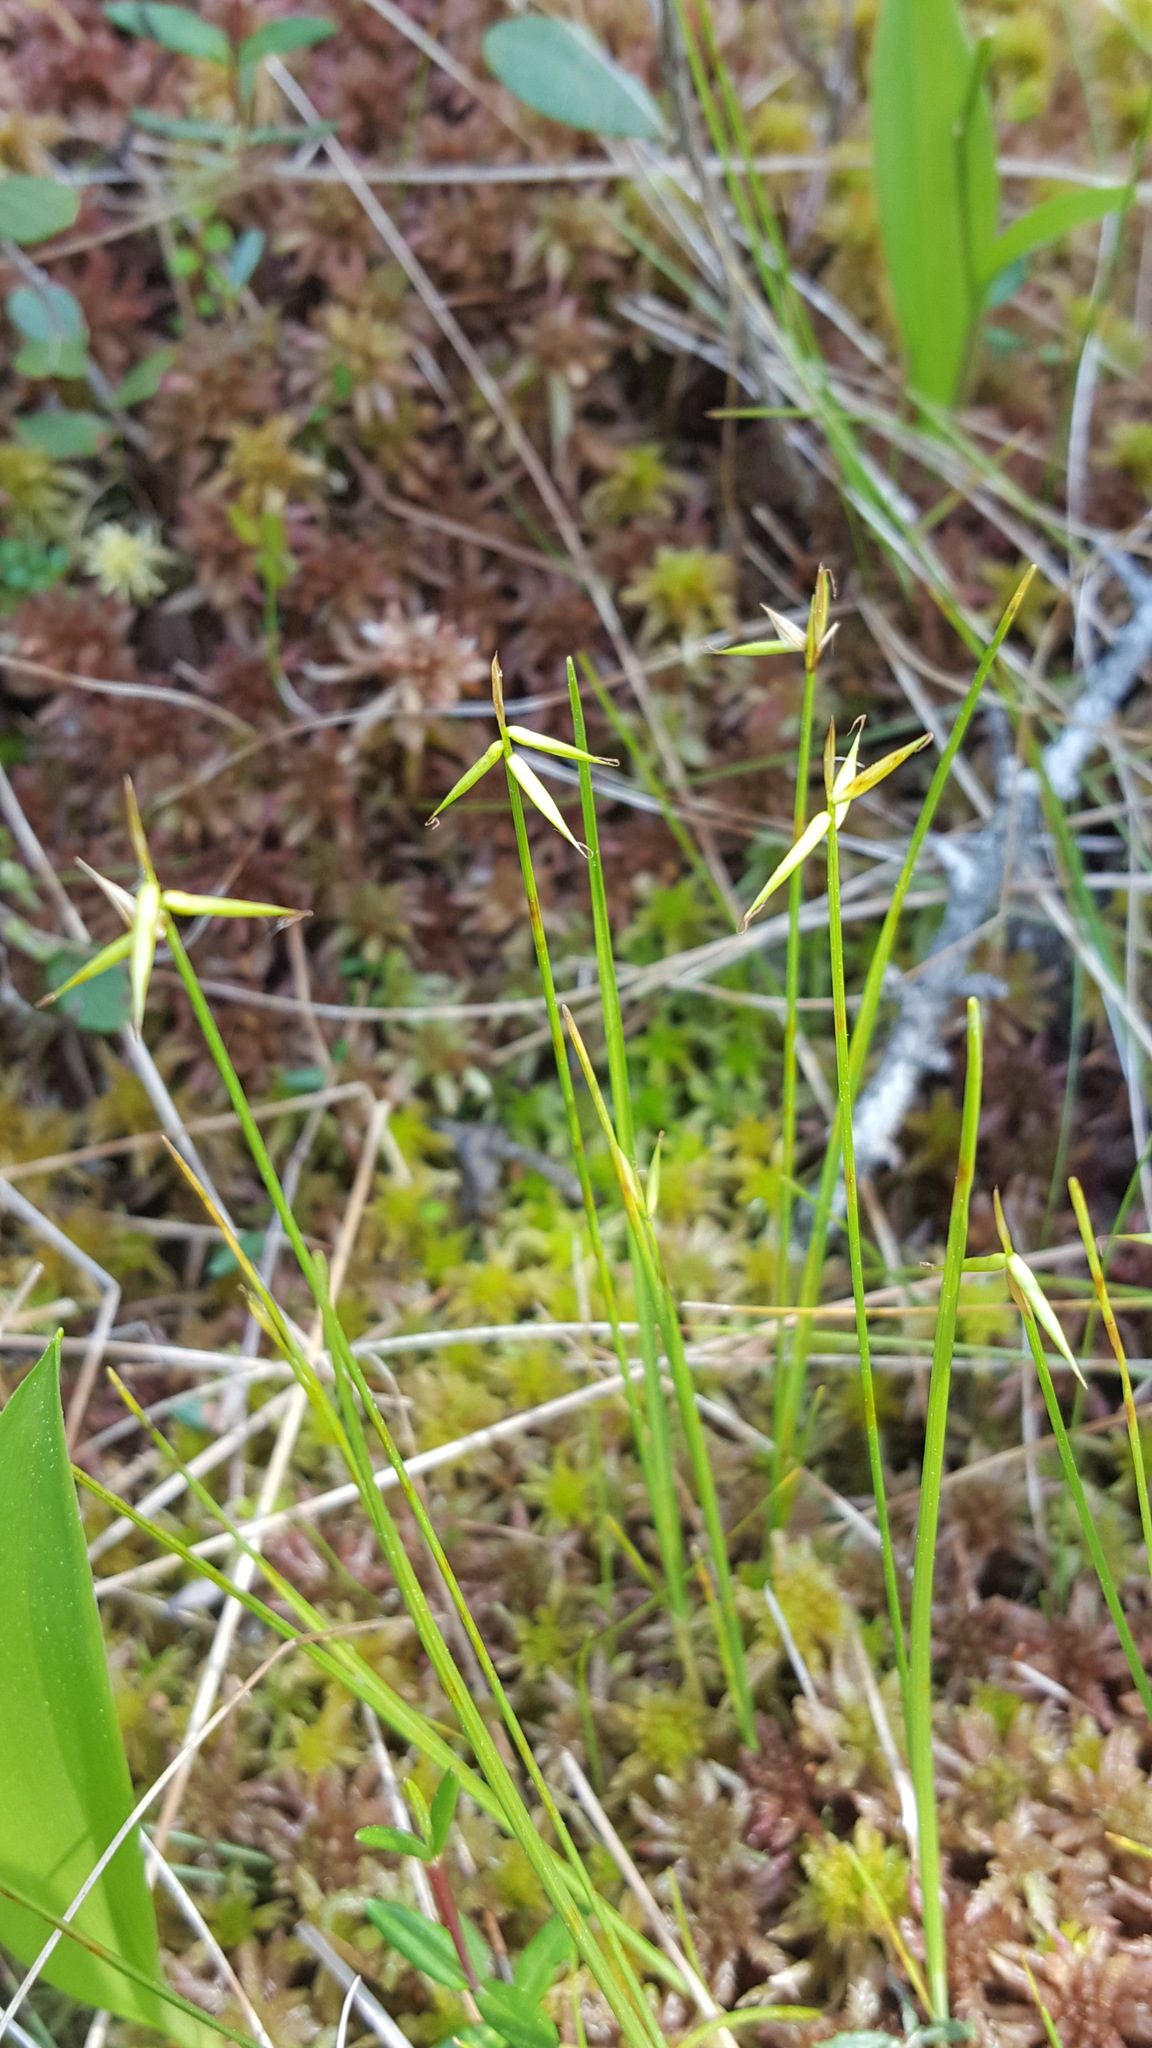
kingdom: Plantae
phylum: Tracheophyta
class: Liliopsida
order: Poales
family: Cyperaceae
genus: Carex
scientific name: Carex pauciflora
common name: Few-flowered sedge
